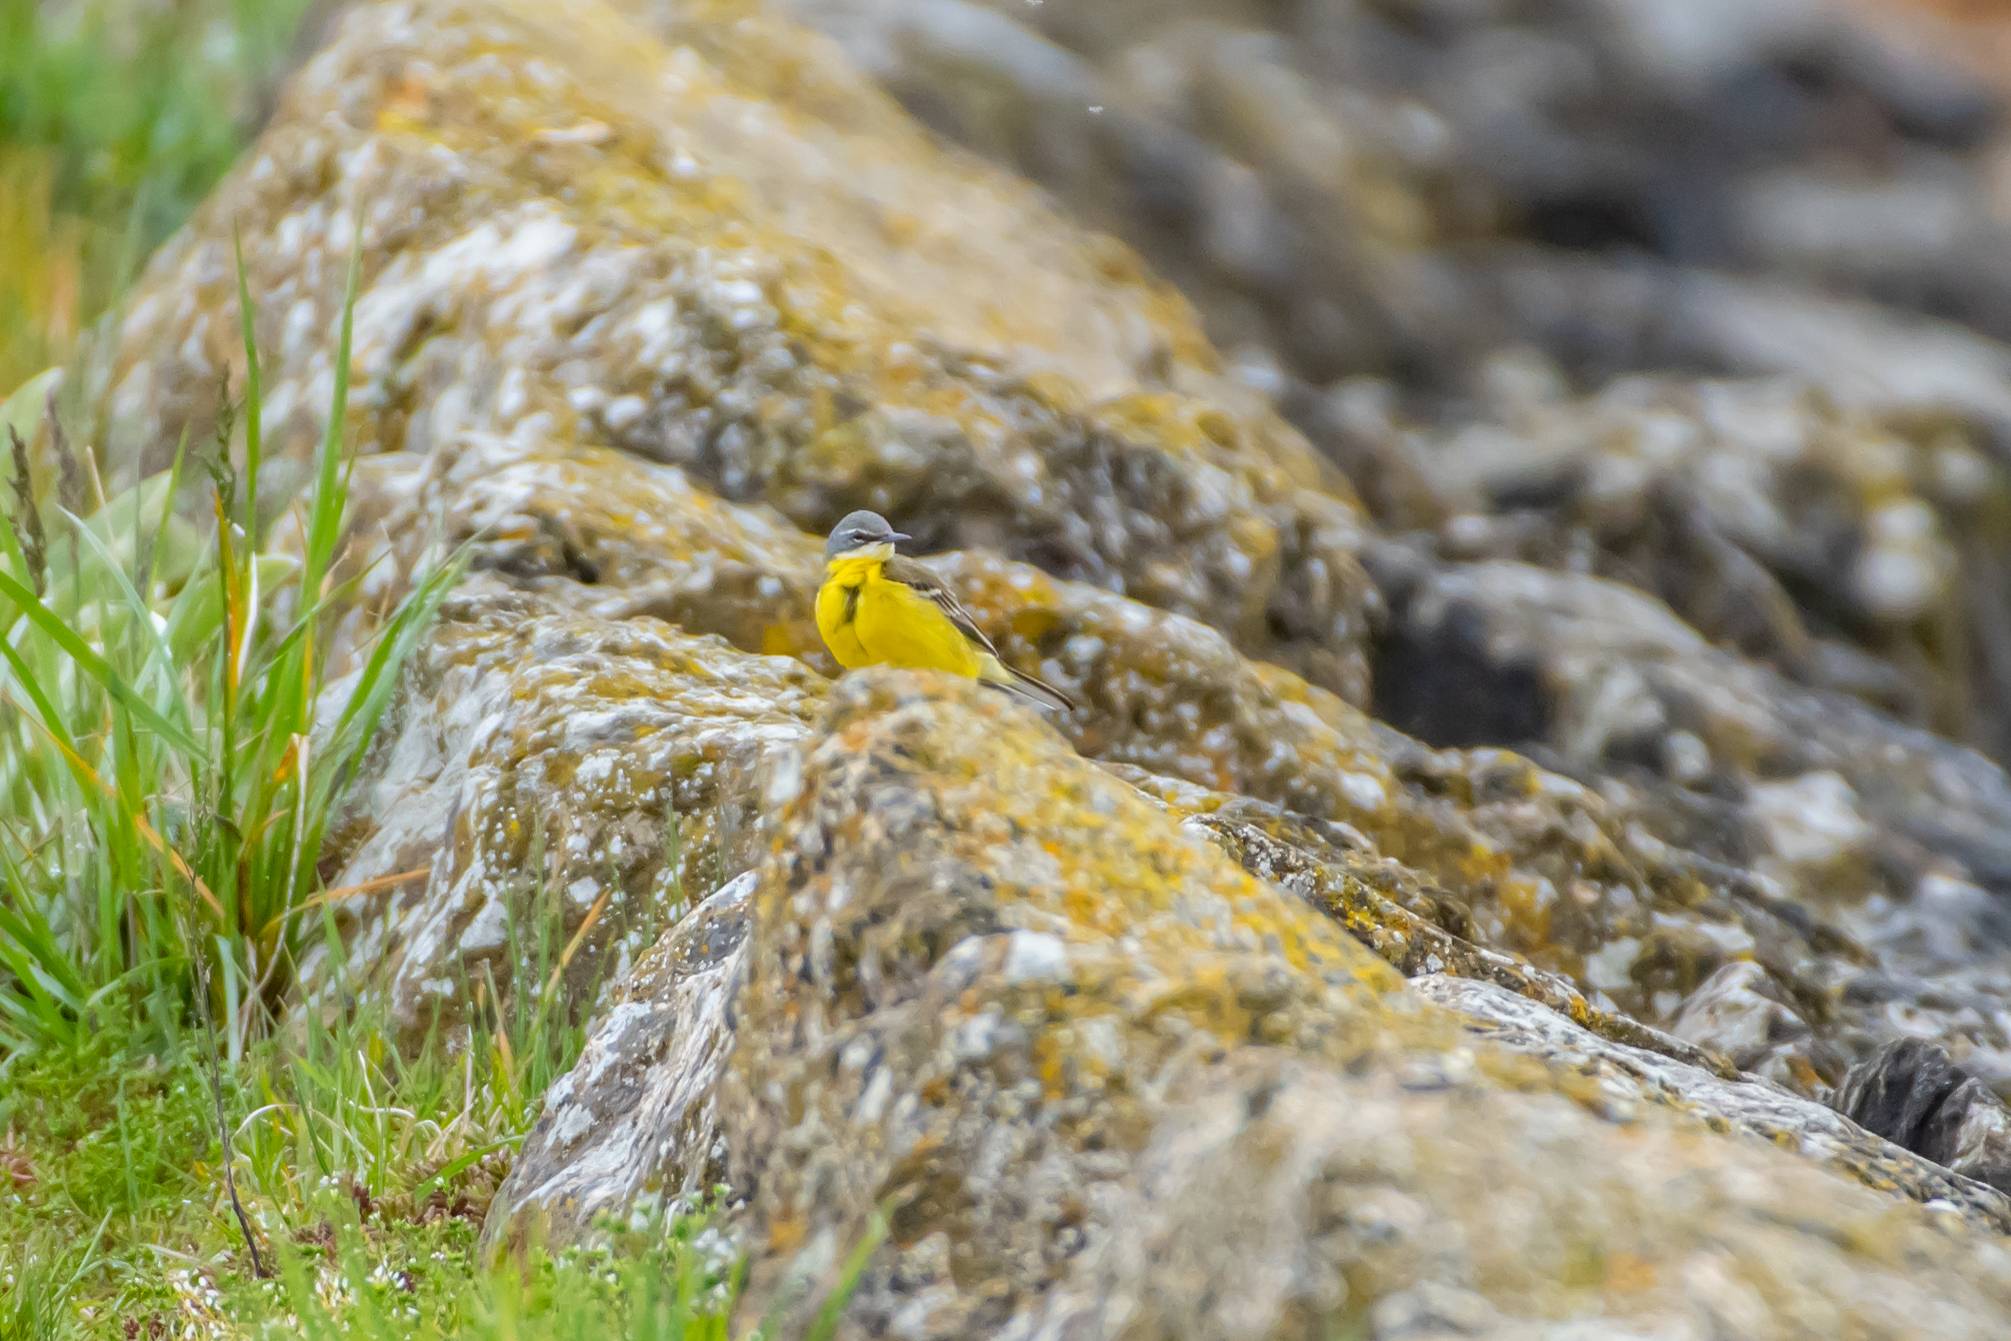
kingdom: Animalia
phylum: Chordata
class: Aves
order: Passeriformes
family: Motacillidae
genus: Motacilla
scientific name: Motacilla flava
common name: Western yellow wagtail
